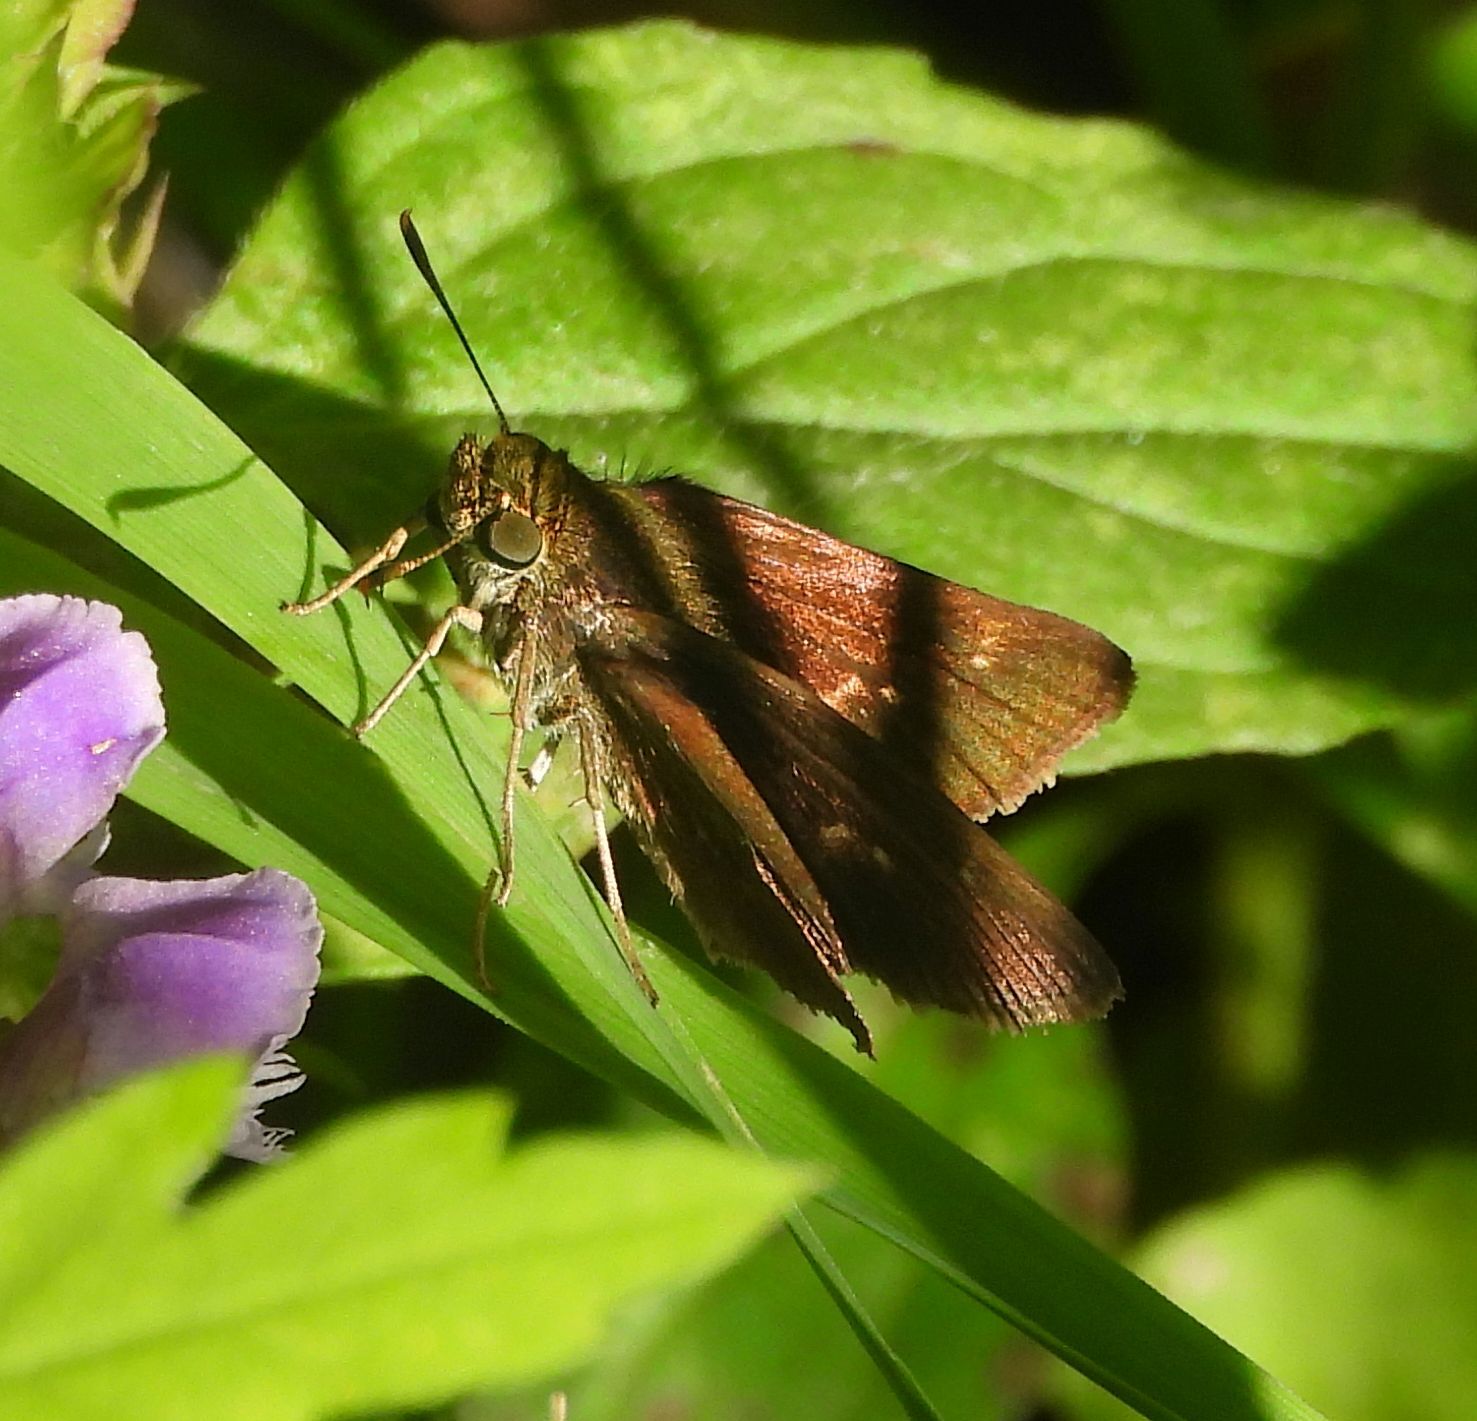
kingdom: Animalia
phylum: Arthropoda
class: Insecta
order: Lepidoptera
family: Hesperiidae
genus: Euphyes
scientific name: Euphyes vestris
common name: Dun skipper
